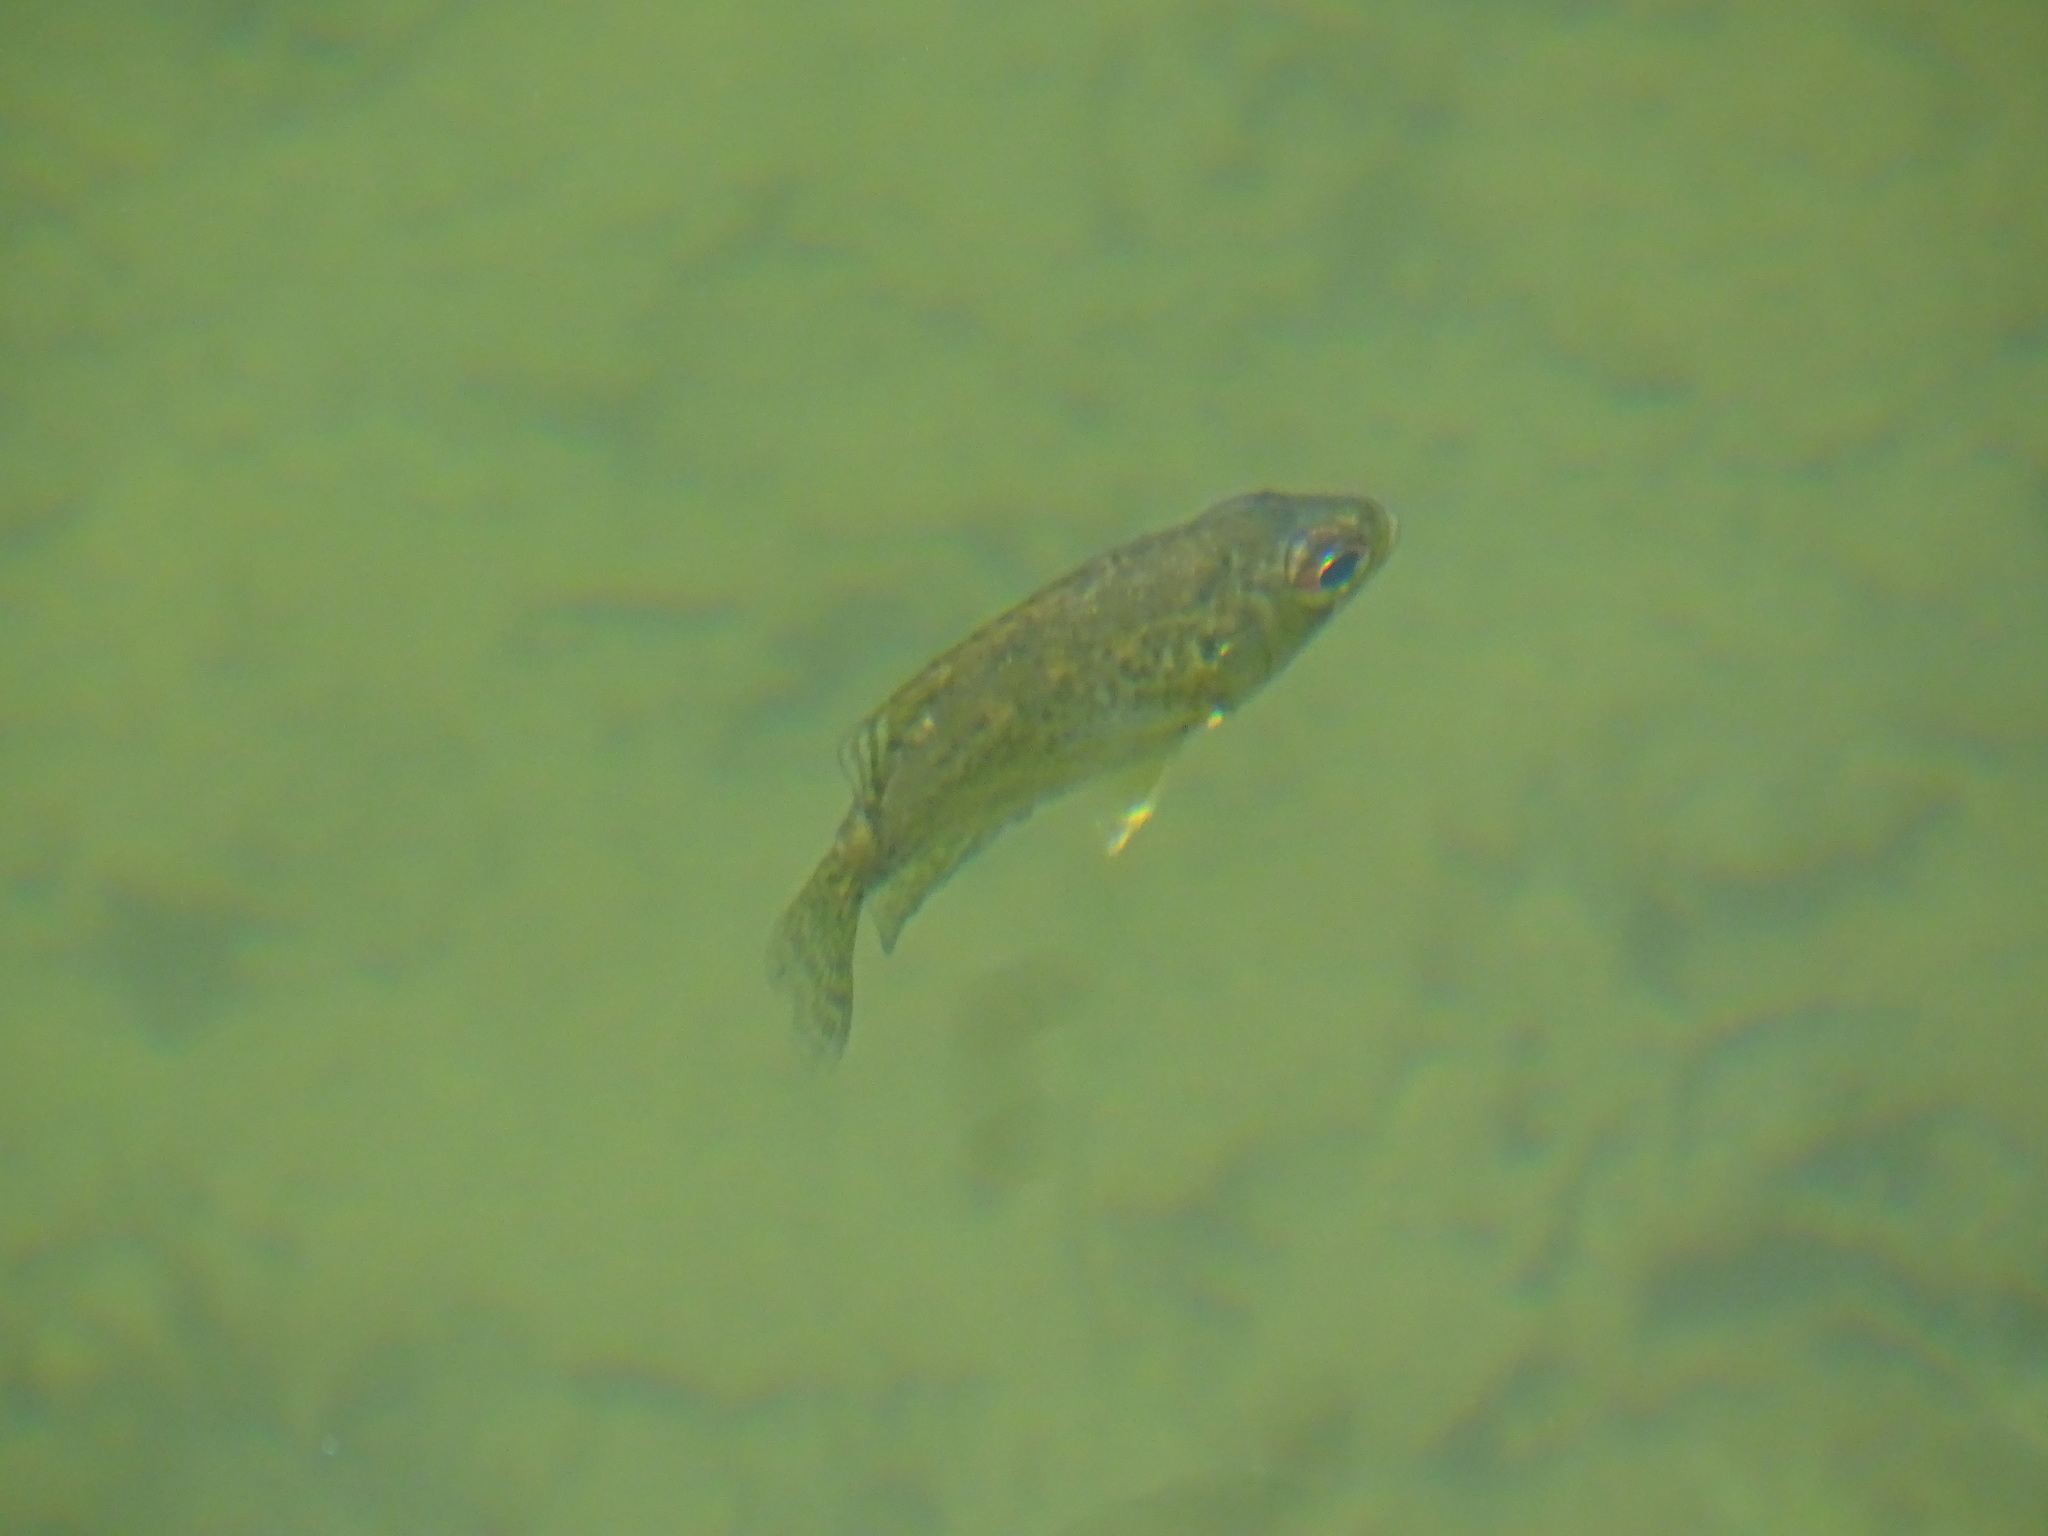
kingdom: Animalia
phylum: Chordata
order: Perciformes
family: Centrarchidae
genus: Ambloplites
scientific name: Ambloplites rupestris
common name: Rock bass
